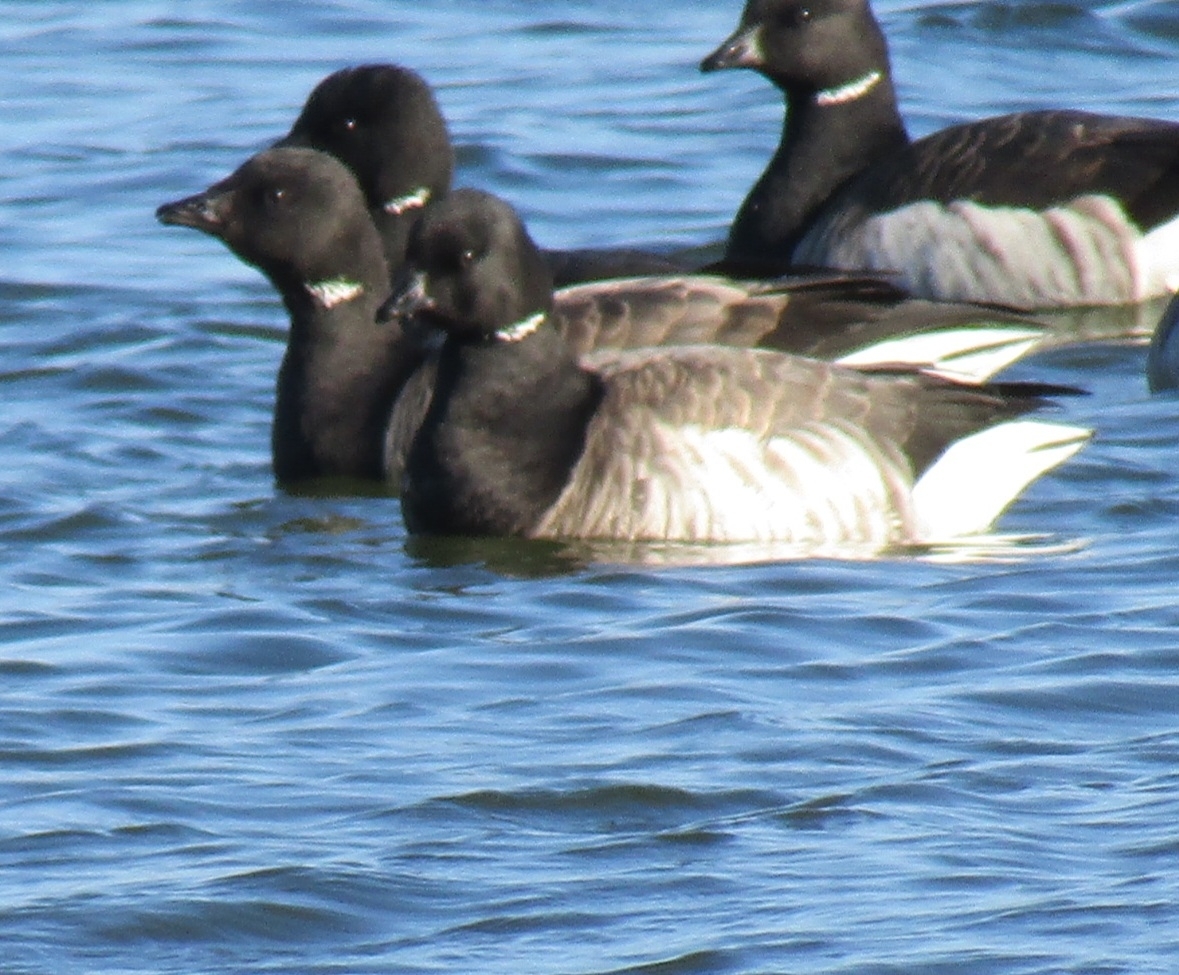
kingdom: Animalia
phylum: Chordata
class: Aves
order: Anseriformes
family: Anatidae
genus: Branta
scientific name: Branta bernicla
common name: Brant goose
